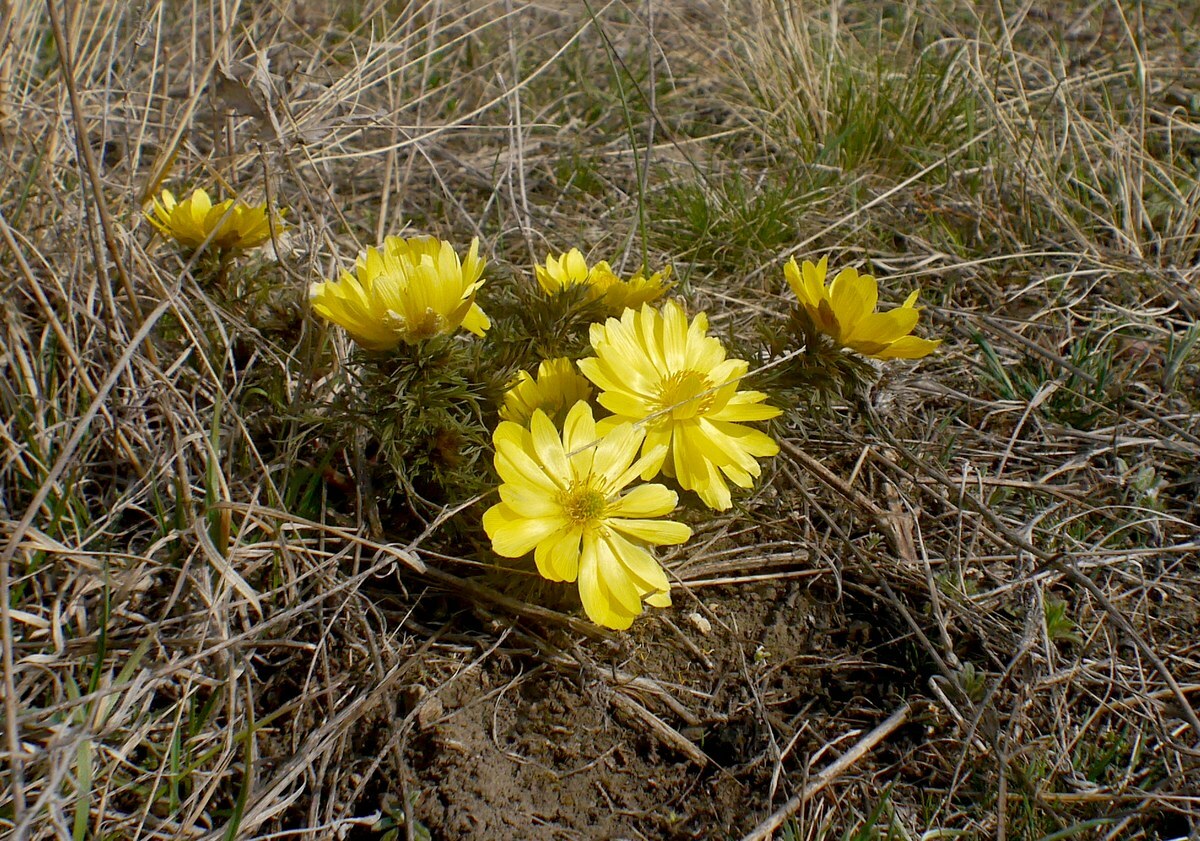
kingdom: Plantae
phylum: Tracheophyta
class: Magnoliopsida
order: Ranunculales
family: Ranunculaceae
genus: Adonis
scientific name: Adonis volgensis
